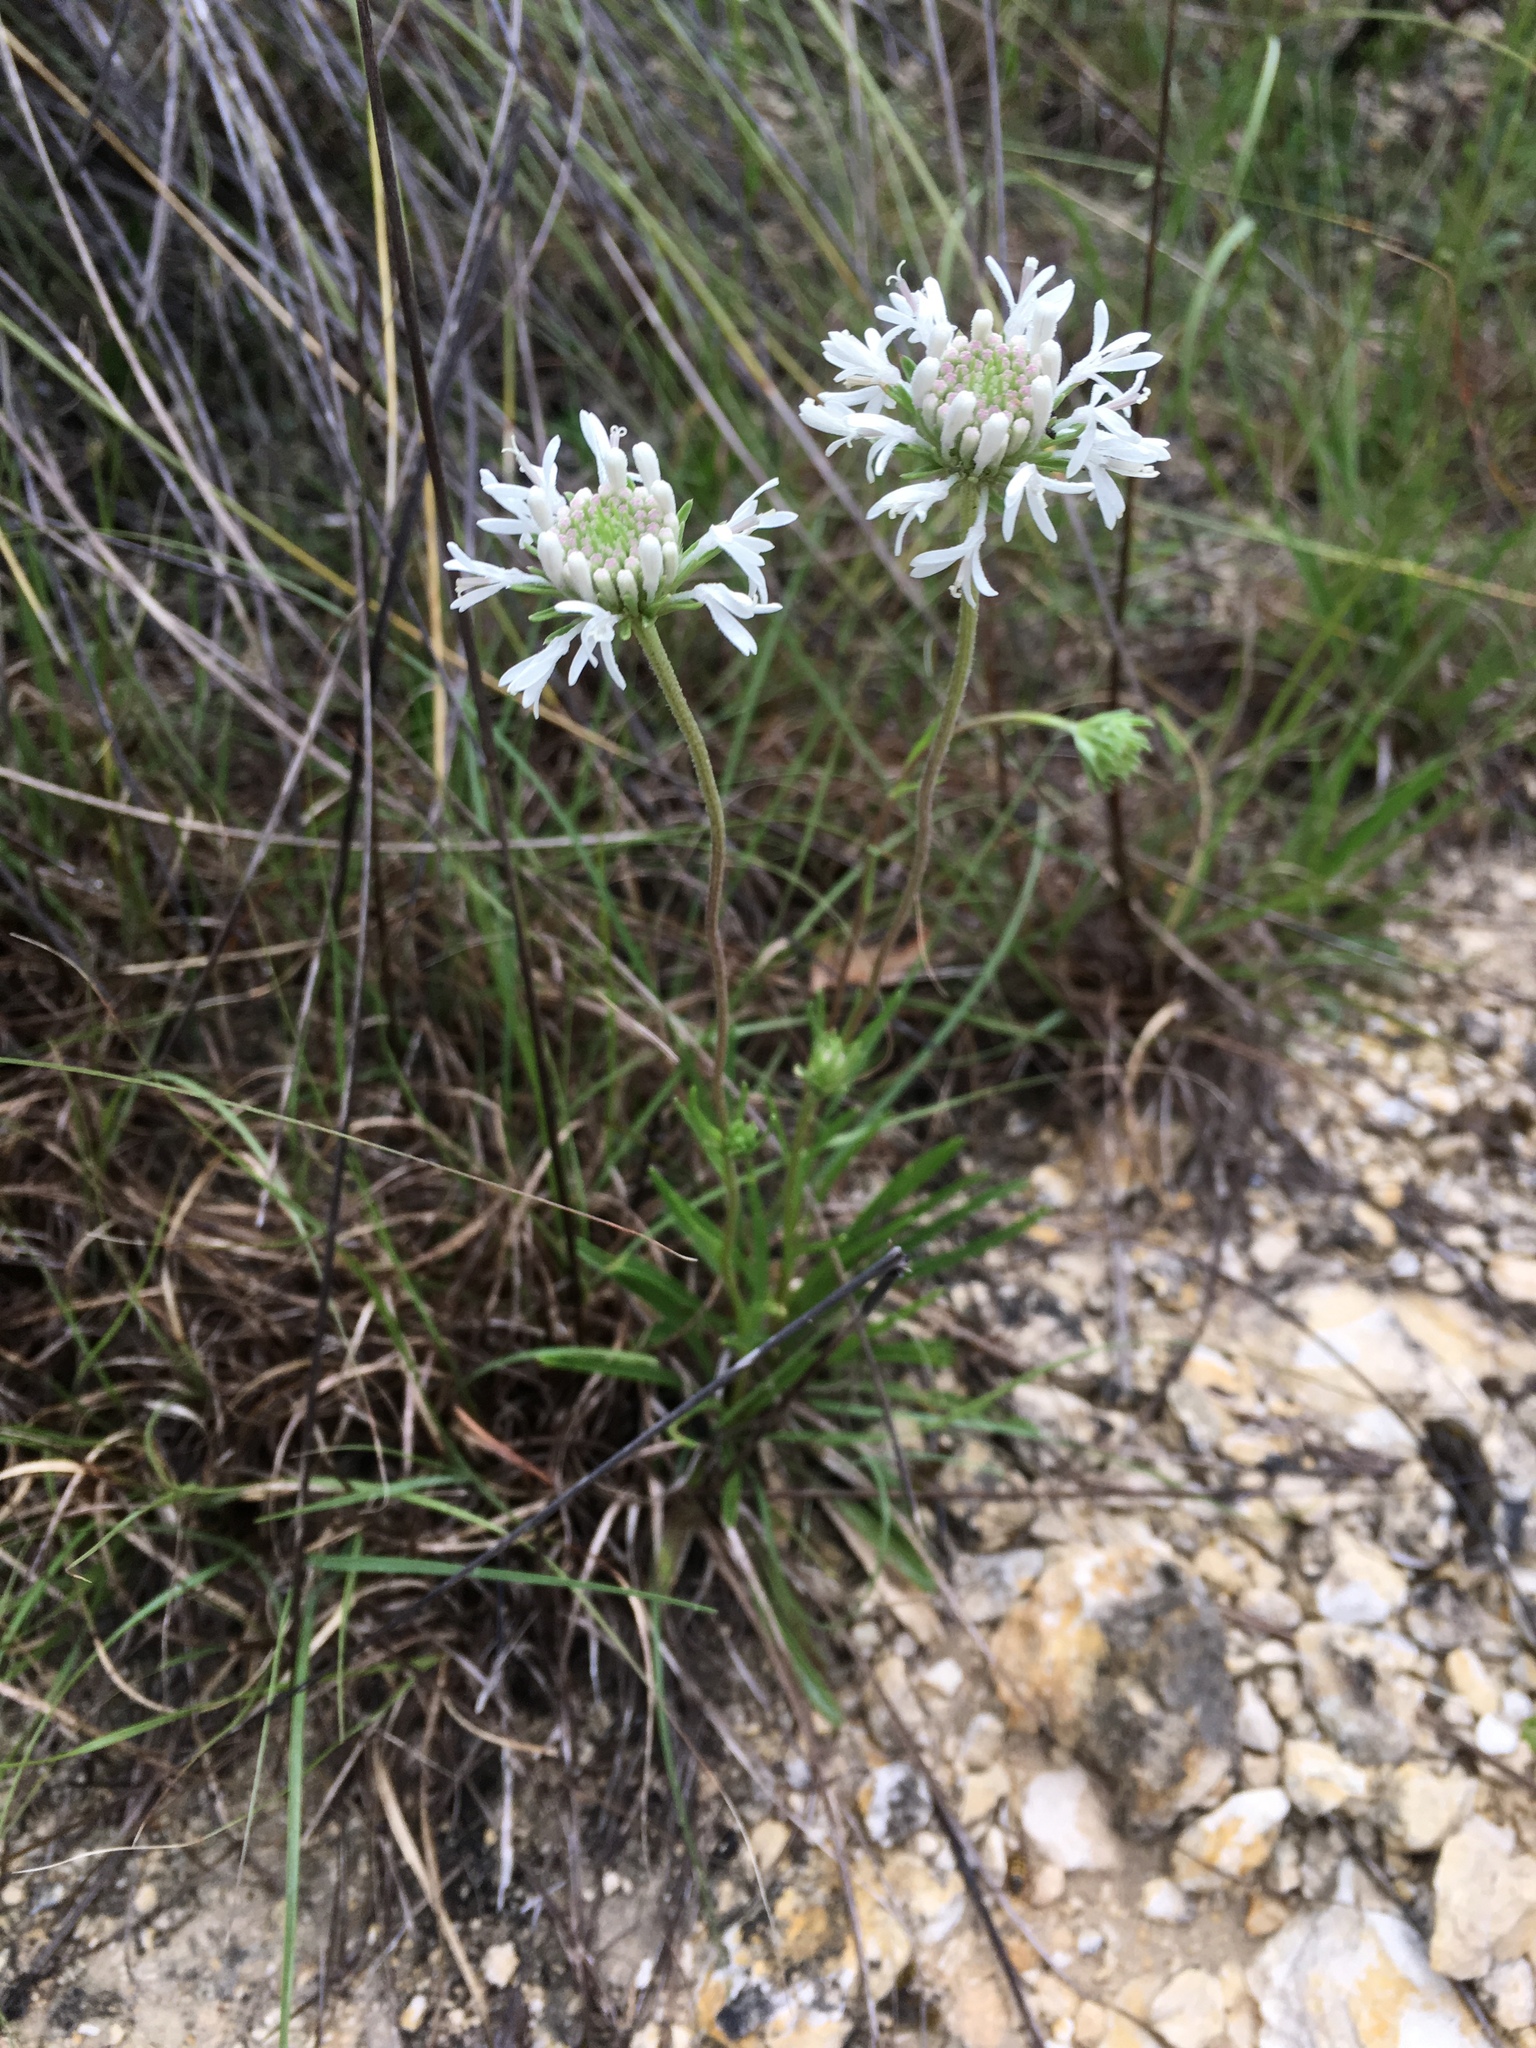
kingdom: Plantae
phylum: Tracheophyta
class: Magnoliopsida
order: Asterales
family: Asteraceae
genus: Marshallia
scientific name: Marshallia caespitosa
